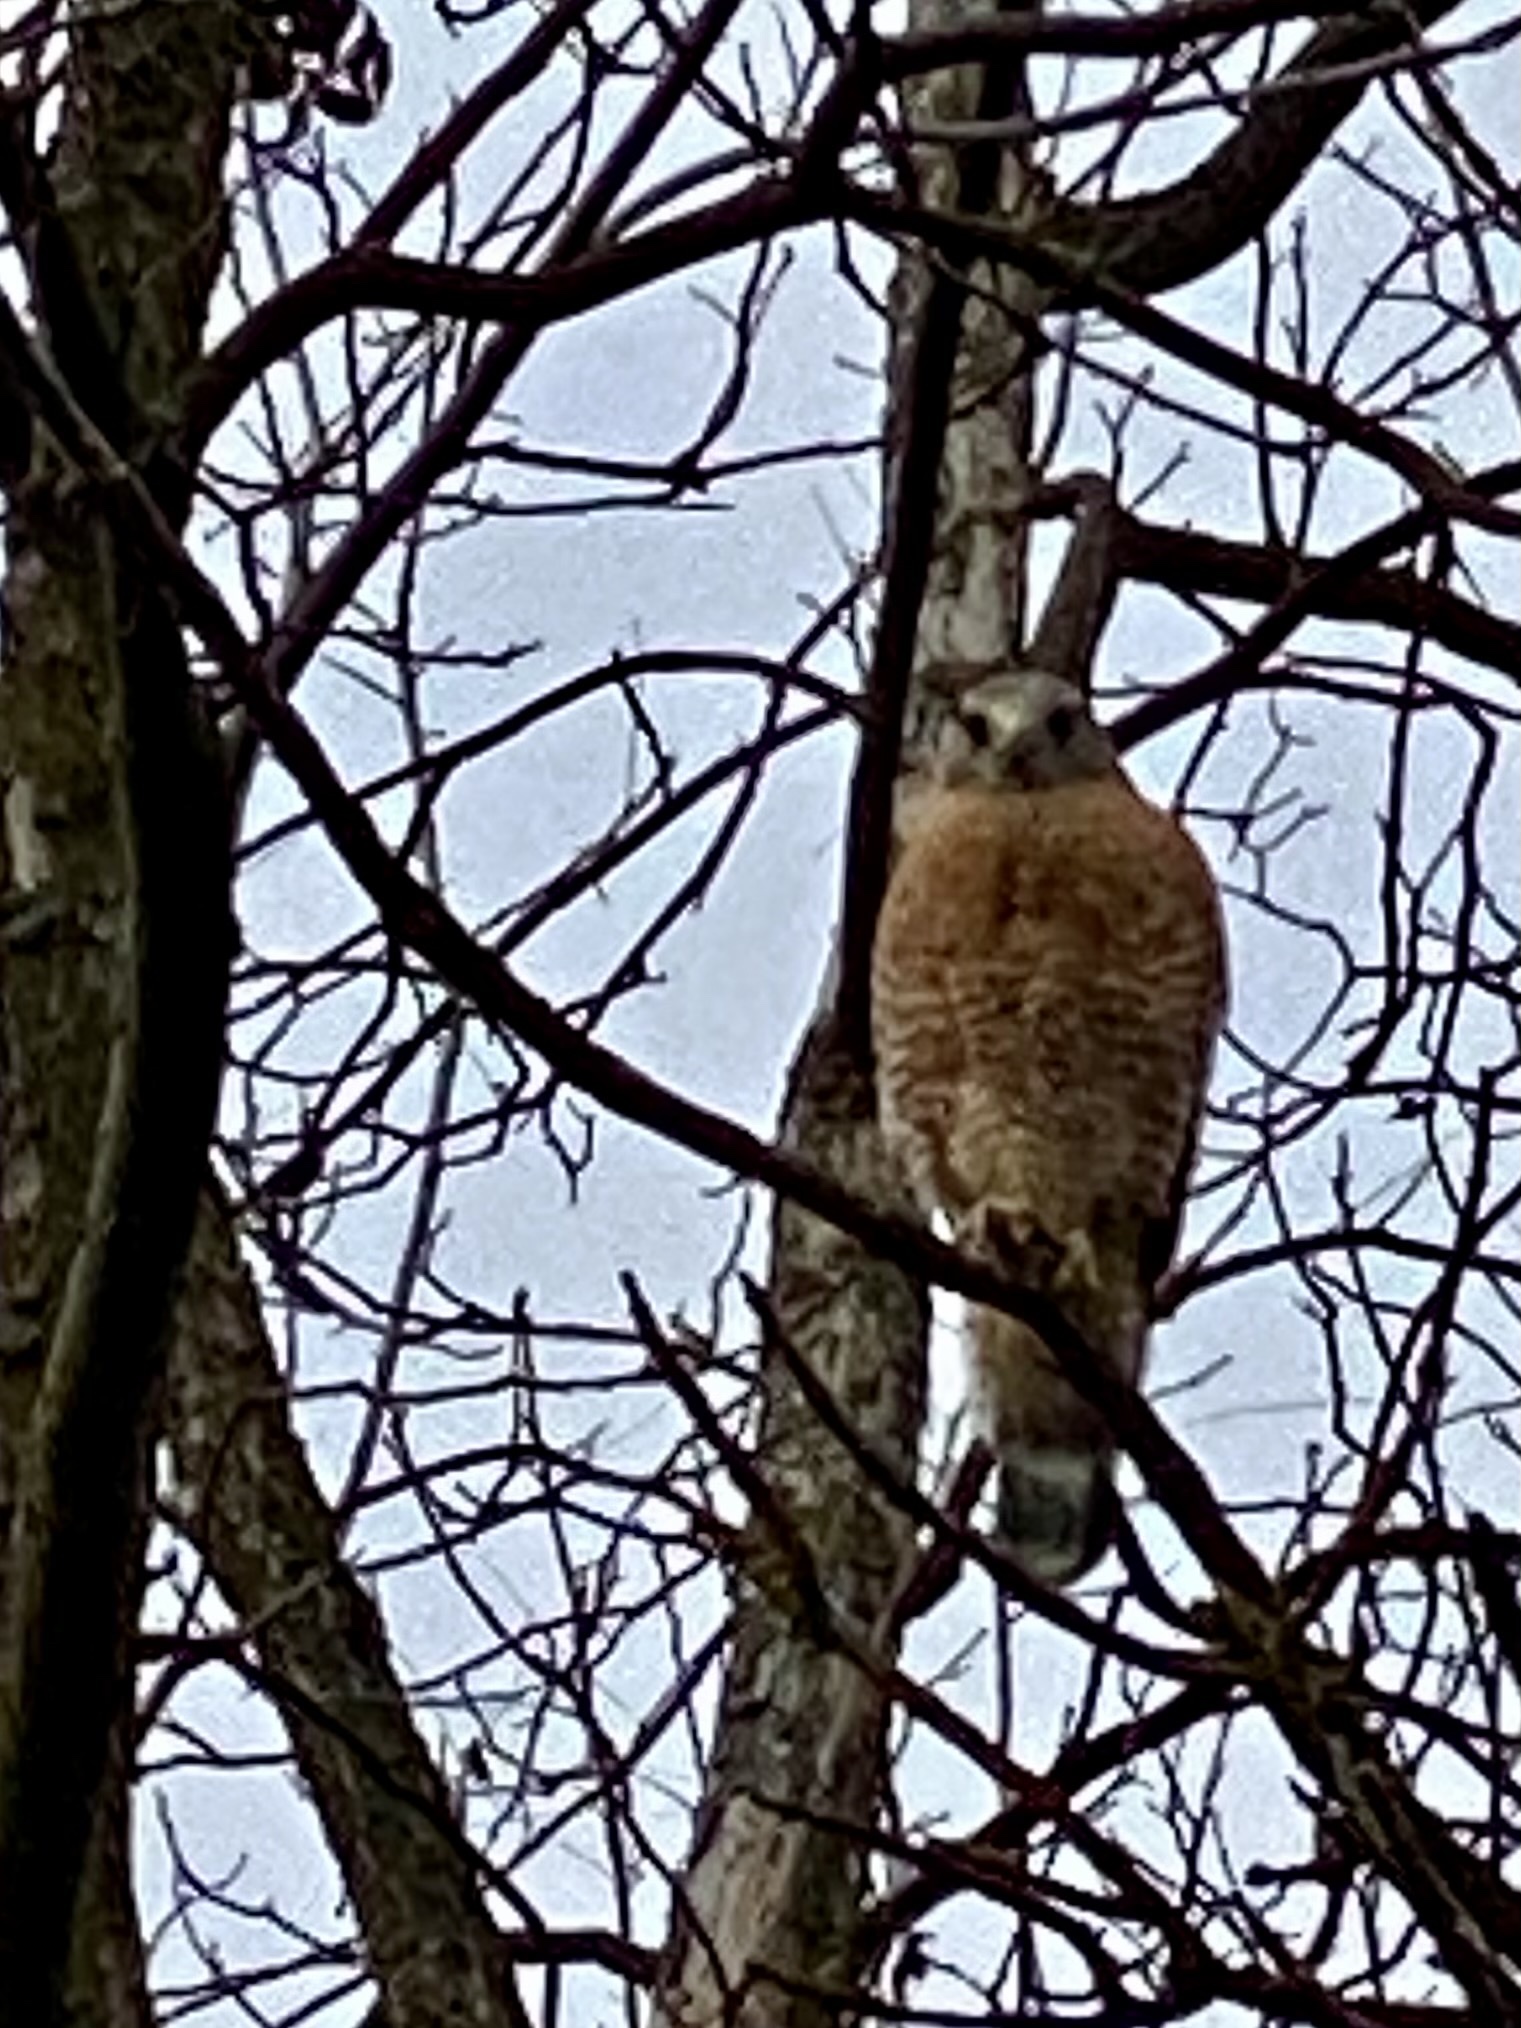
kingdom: Animalia
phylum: Chordata
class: Aves
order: Accipitriformes
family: Accipitridae
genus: Buteo
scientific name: Buteo lineatus
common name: Red-shouldered hawk
